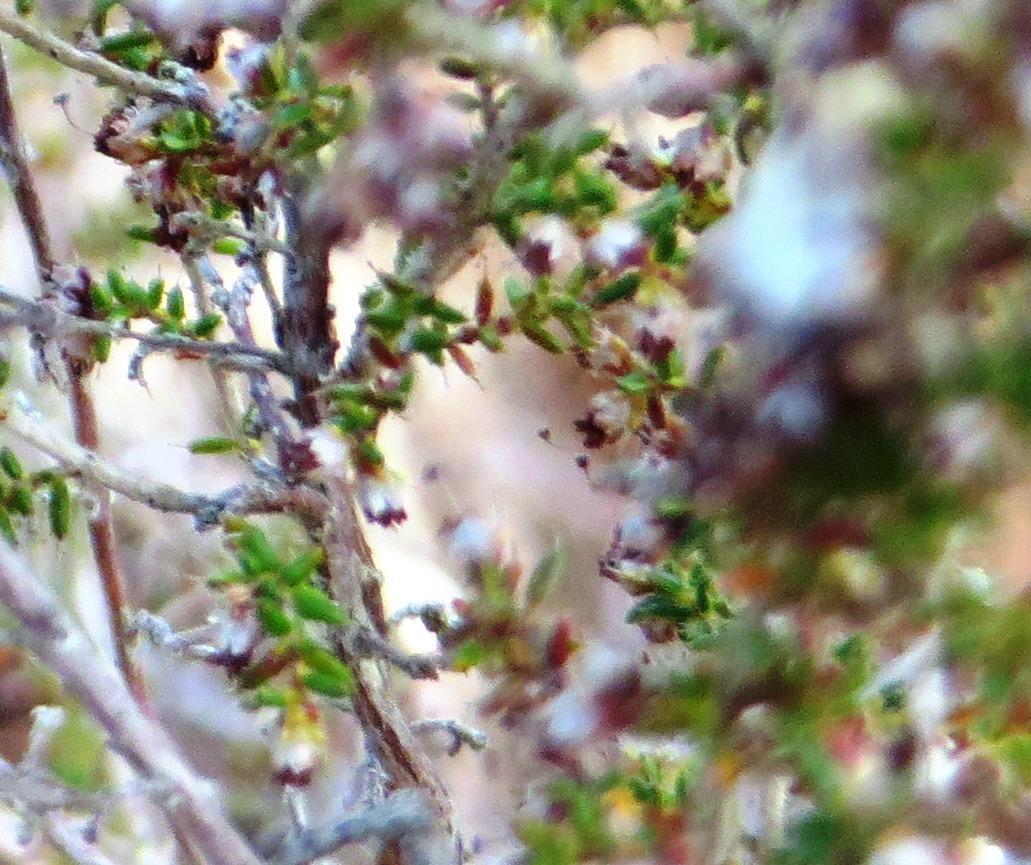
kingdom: Plantae
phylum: Tracheophyta
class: Magnoliopsida
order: Ericales
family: Ericaceae
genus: Erica
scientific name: Erica rigidula
